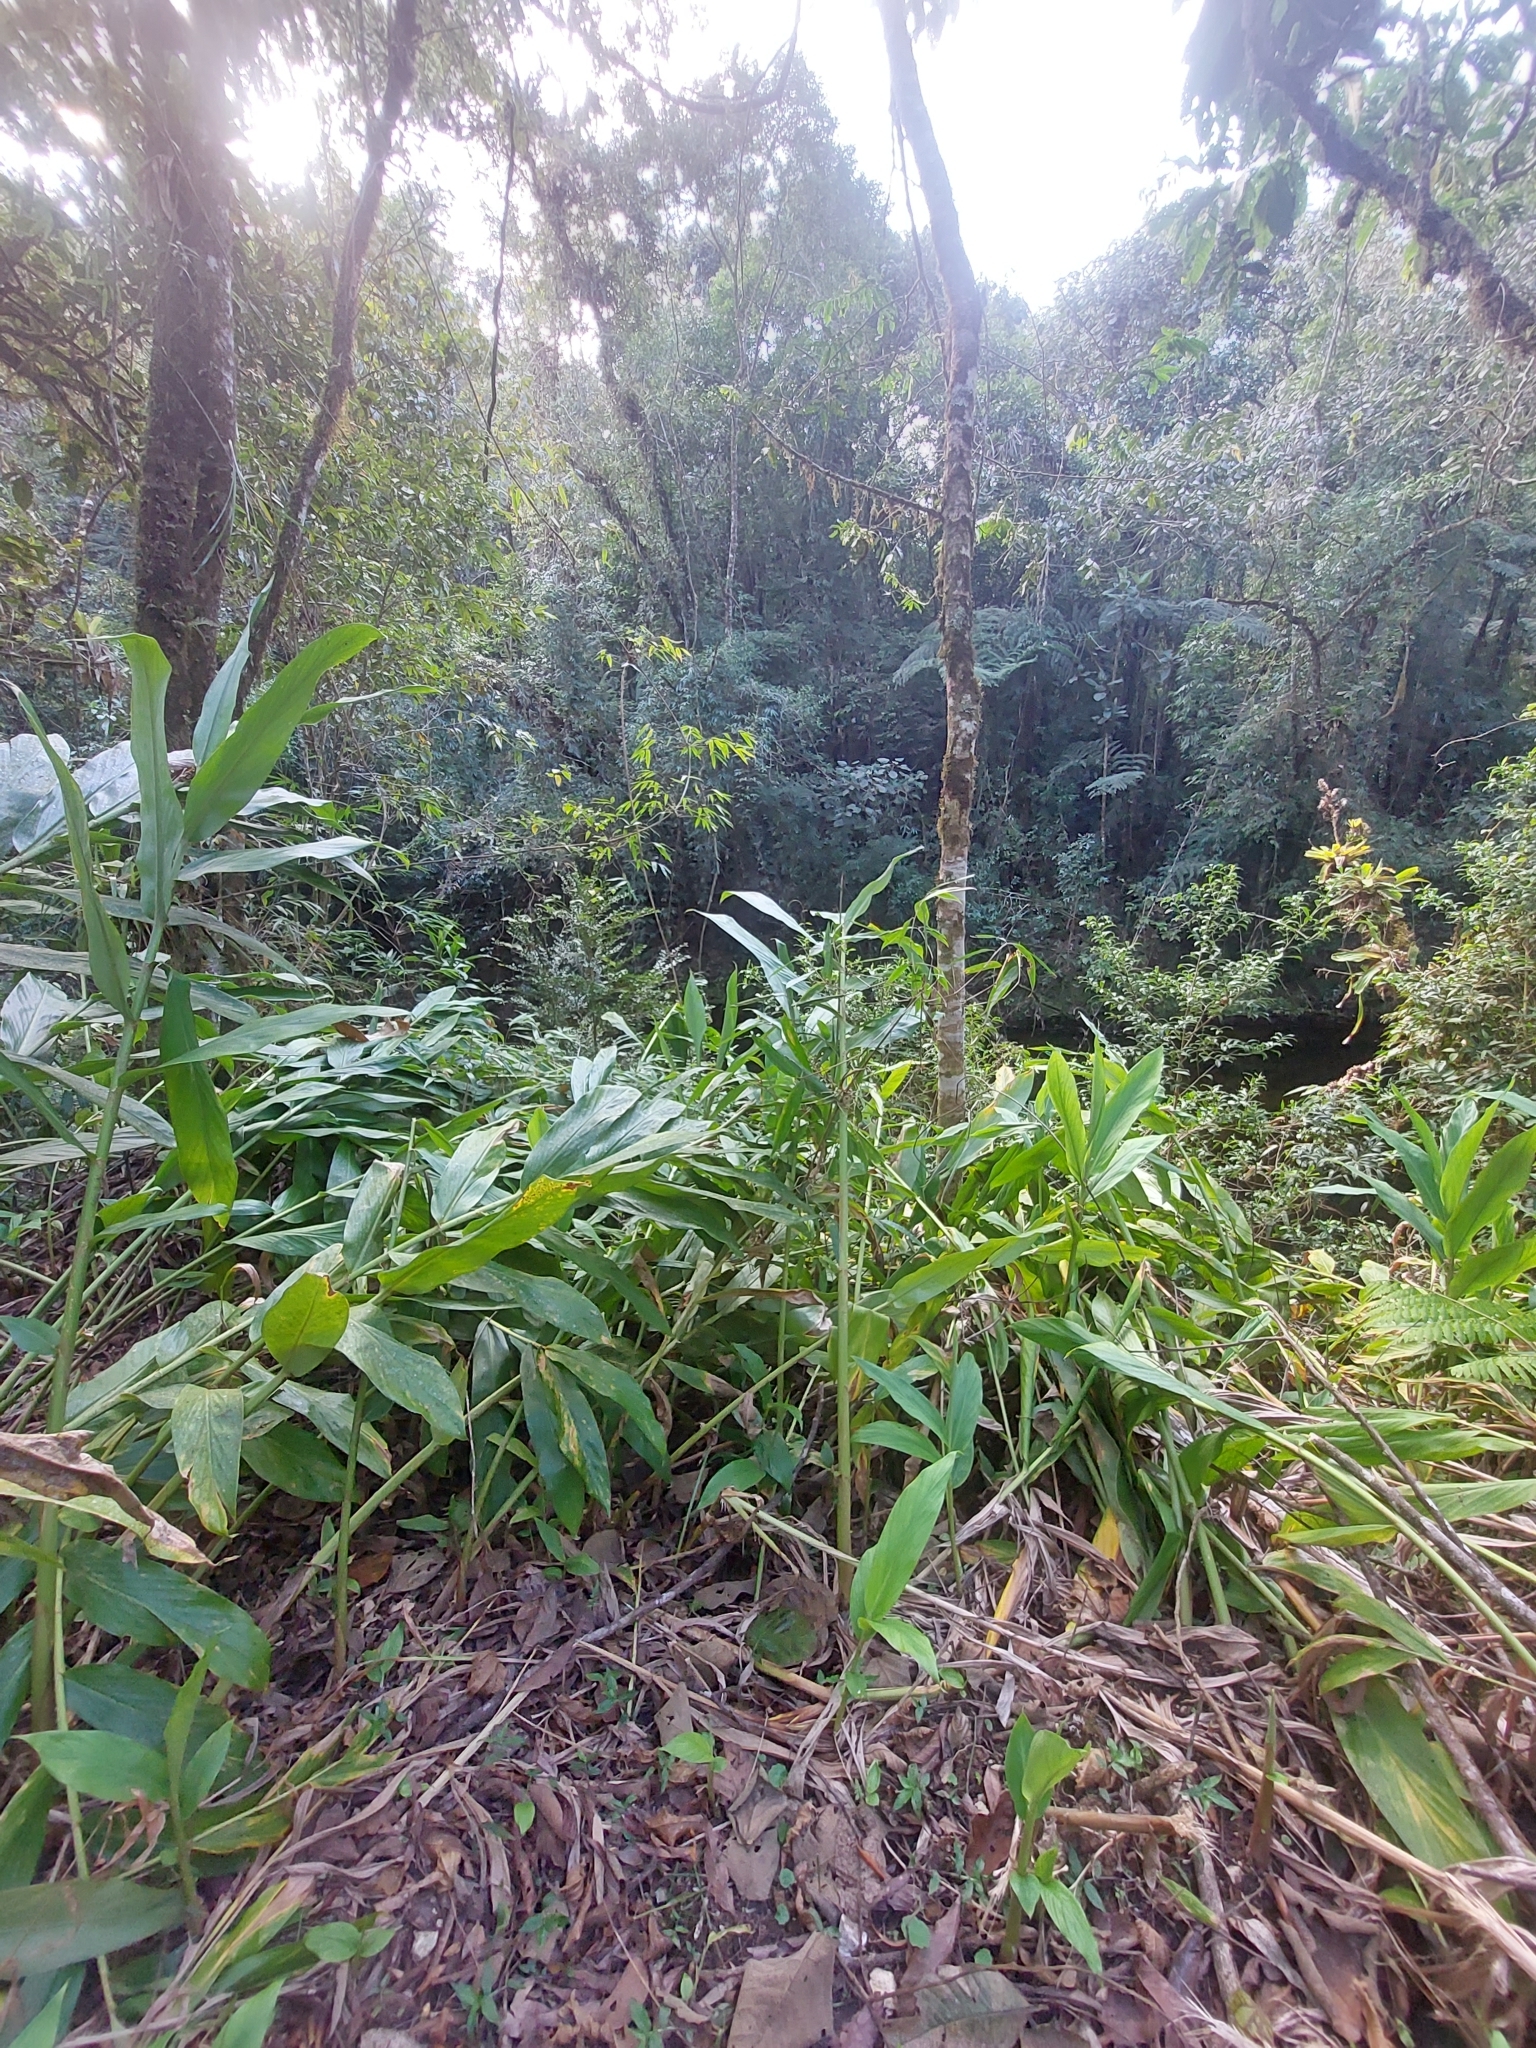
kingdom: Plantae
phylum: Tracheophyta
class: Liliopsida
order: Zingiberales
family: Zingiberaceae
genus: Hedychium
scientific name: Hedychium coronarium
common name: White garland-lily
